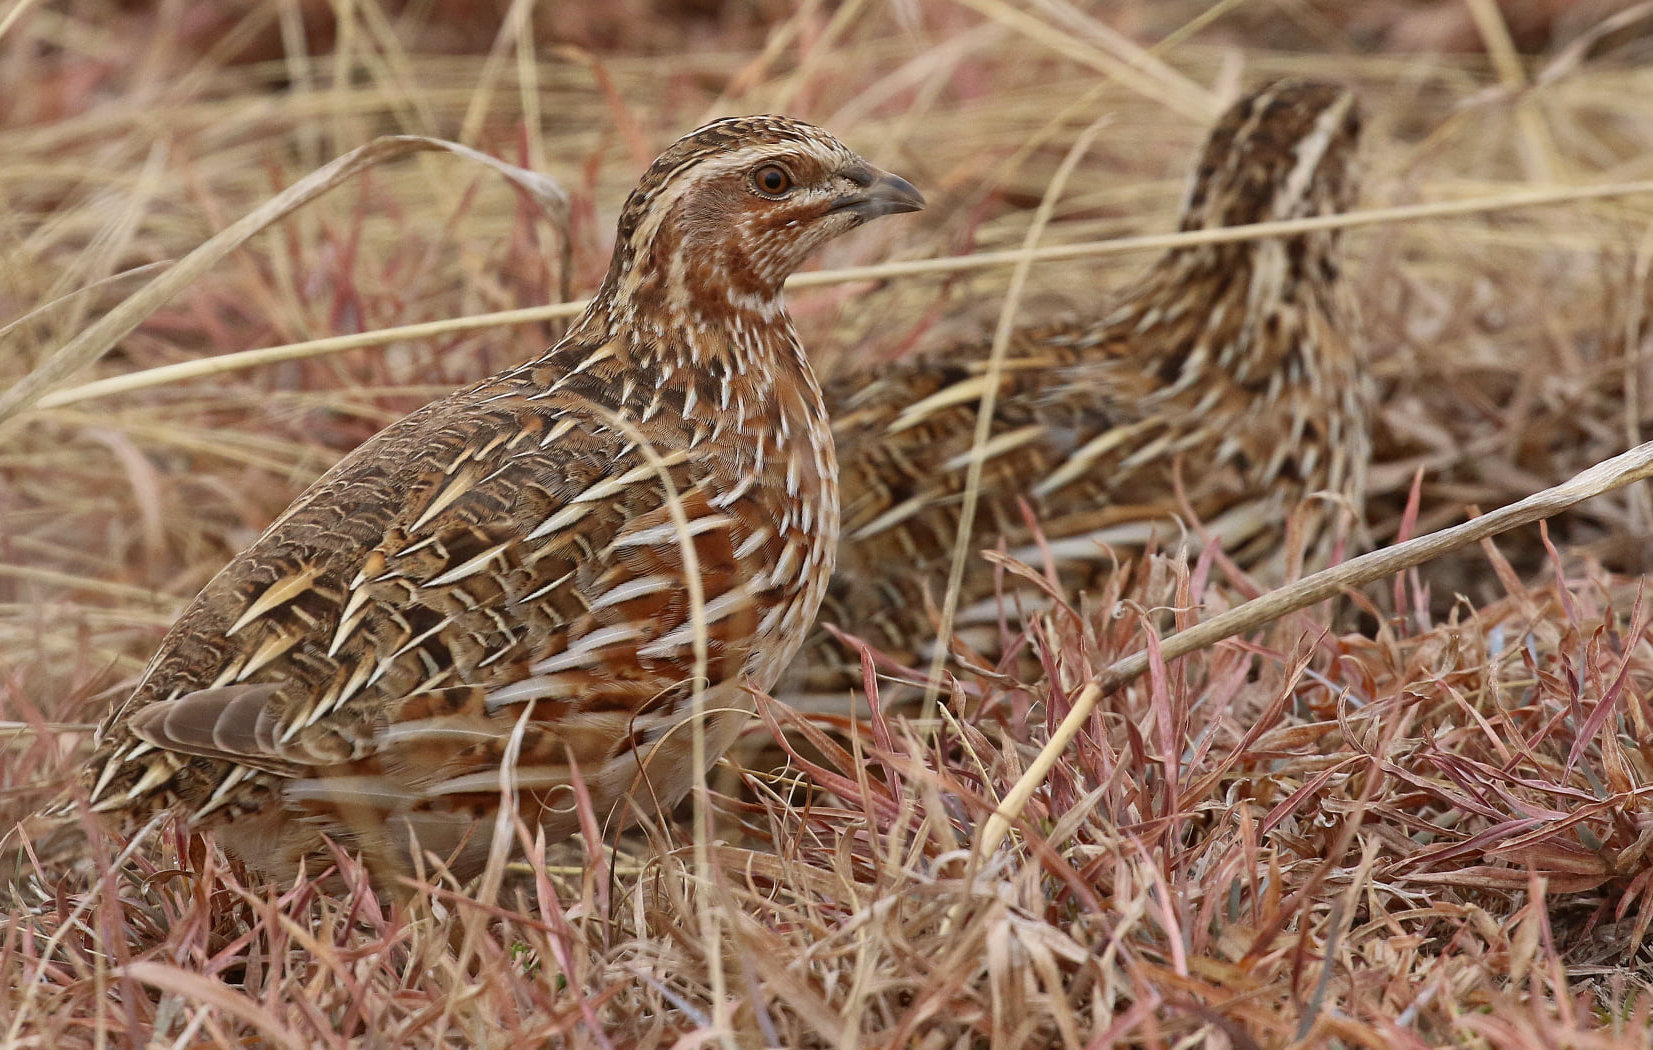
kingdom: Animalia
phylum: Chordata
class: Aves
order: Galliformes
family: Phasianidae
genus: Coturnix
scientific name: Coturnix coturnix
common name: Common quail
